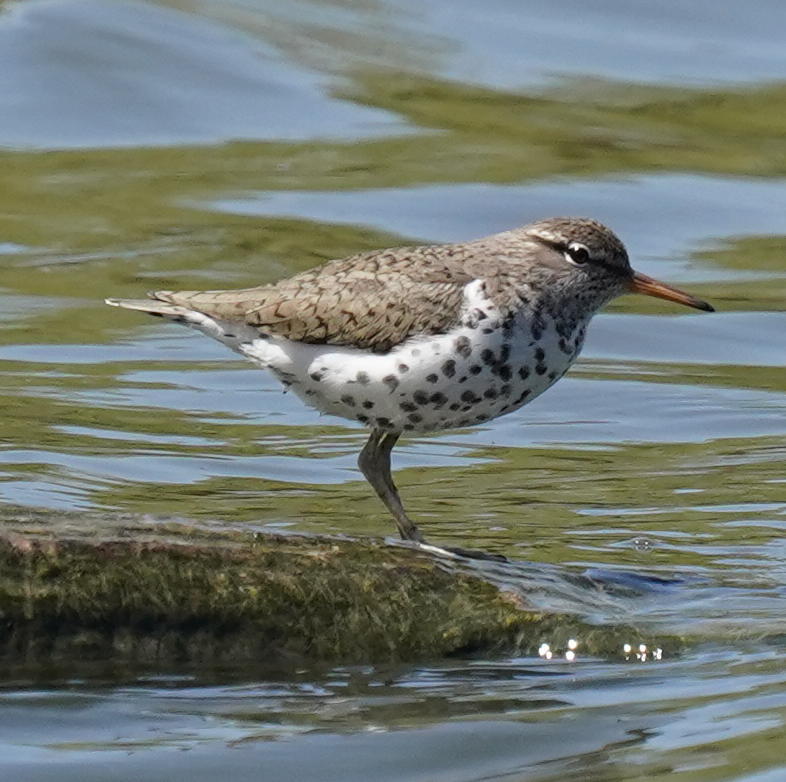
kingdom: Animalia
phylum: Chordata
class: Aves
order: Charadriiformes
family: Scolopacidae
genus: Actitis
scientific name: Actitis macularius
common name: Spotted sandpiper
